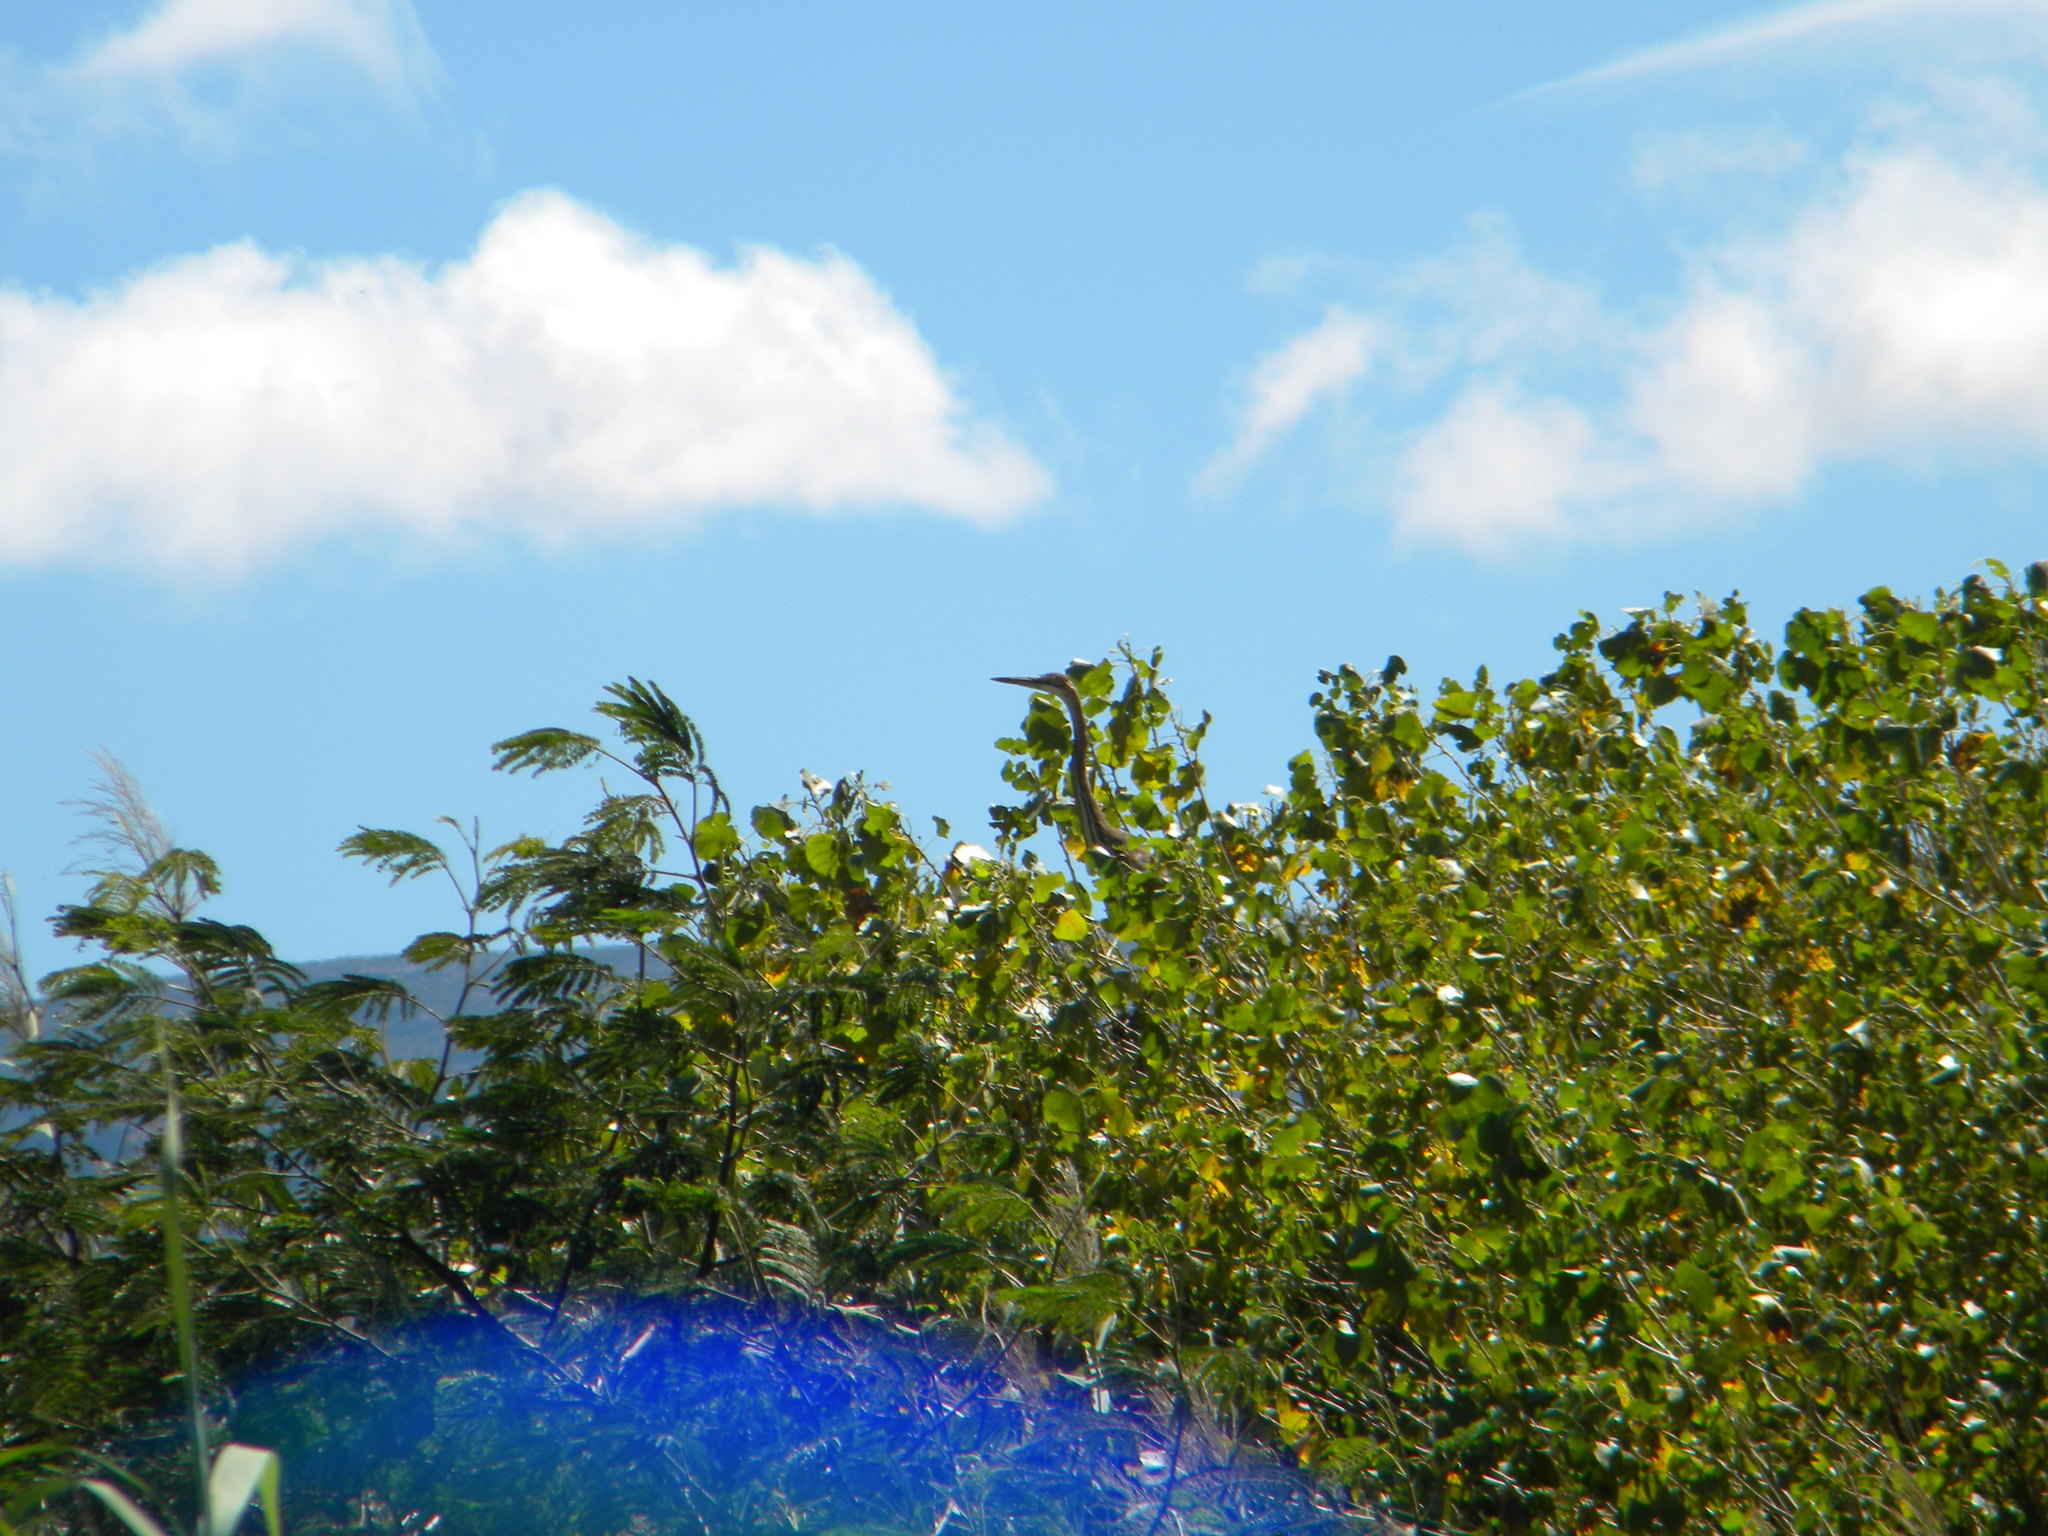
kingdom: Animalia
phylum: Chordata
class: Aves
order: Pelecaniformes
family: Ardeidae
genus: Ardea
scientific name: Ardea purpurea
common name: Purple heron
